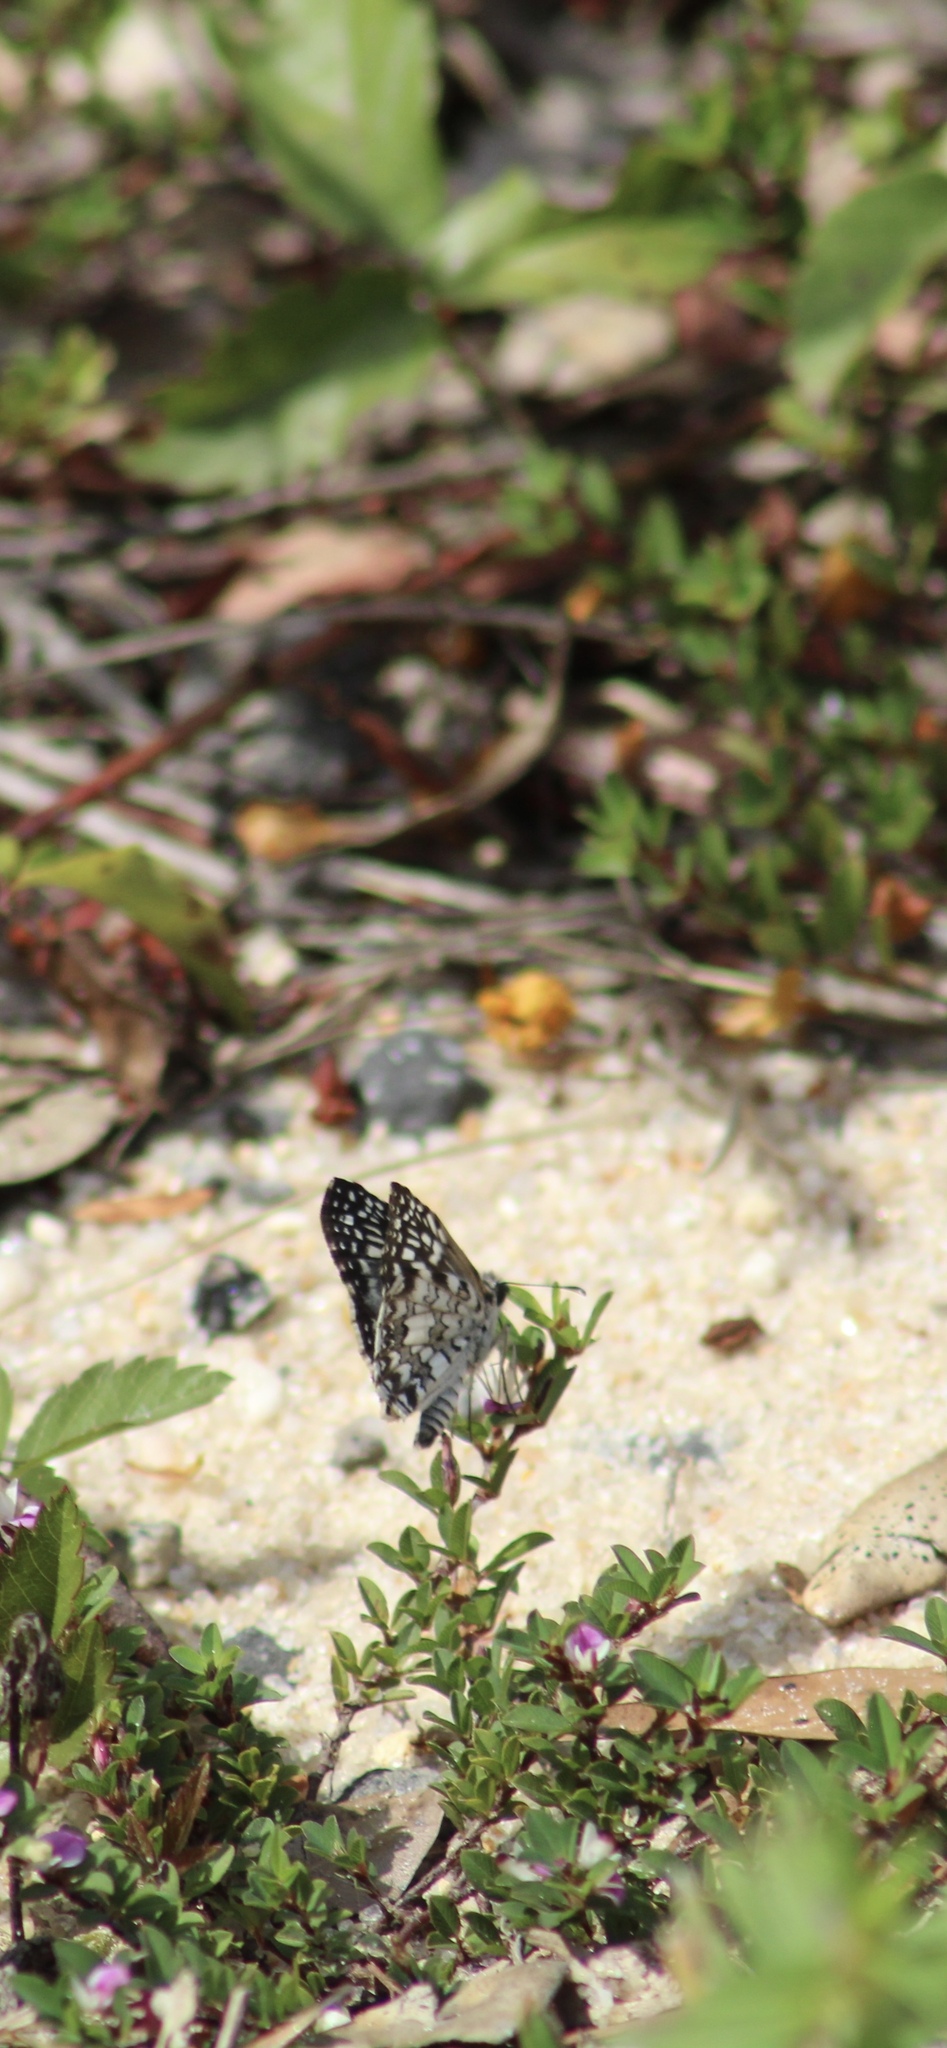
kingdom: Animalia
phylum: Arthropoda
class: Insecta
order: Lepidoptera
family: Hesperiidae
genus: Pyrgus
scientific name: Pyrgus oileus
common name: Tropical checkered-skipper
